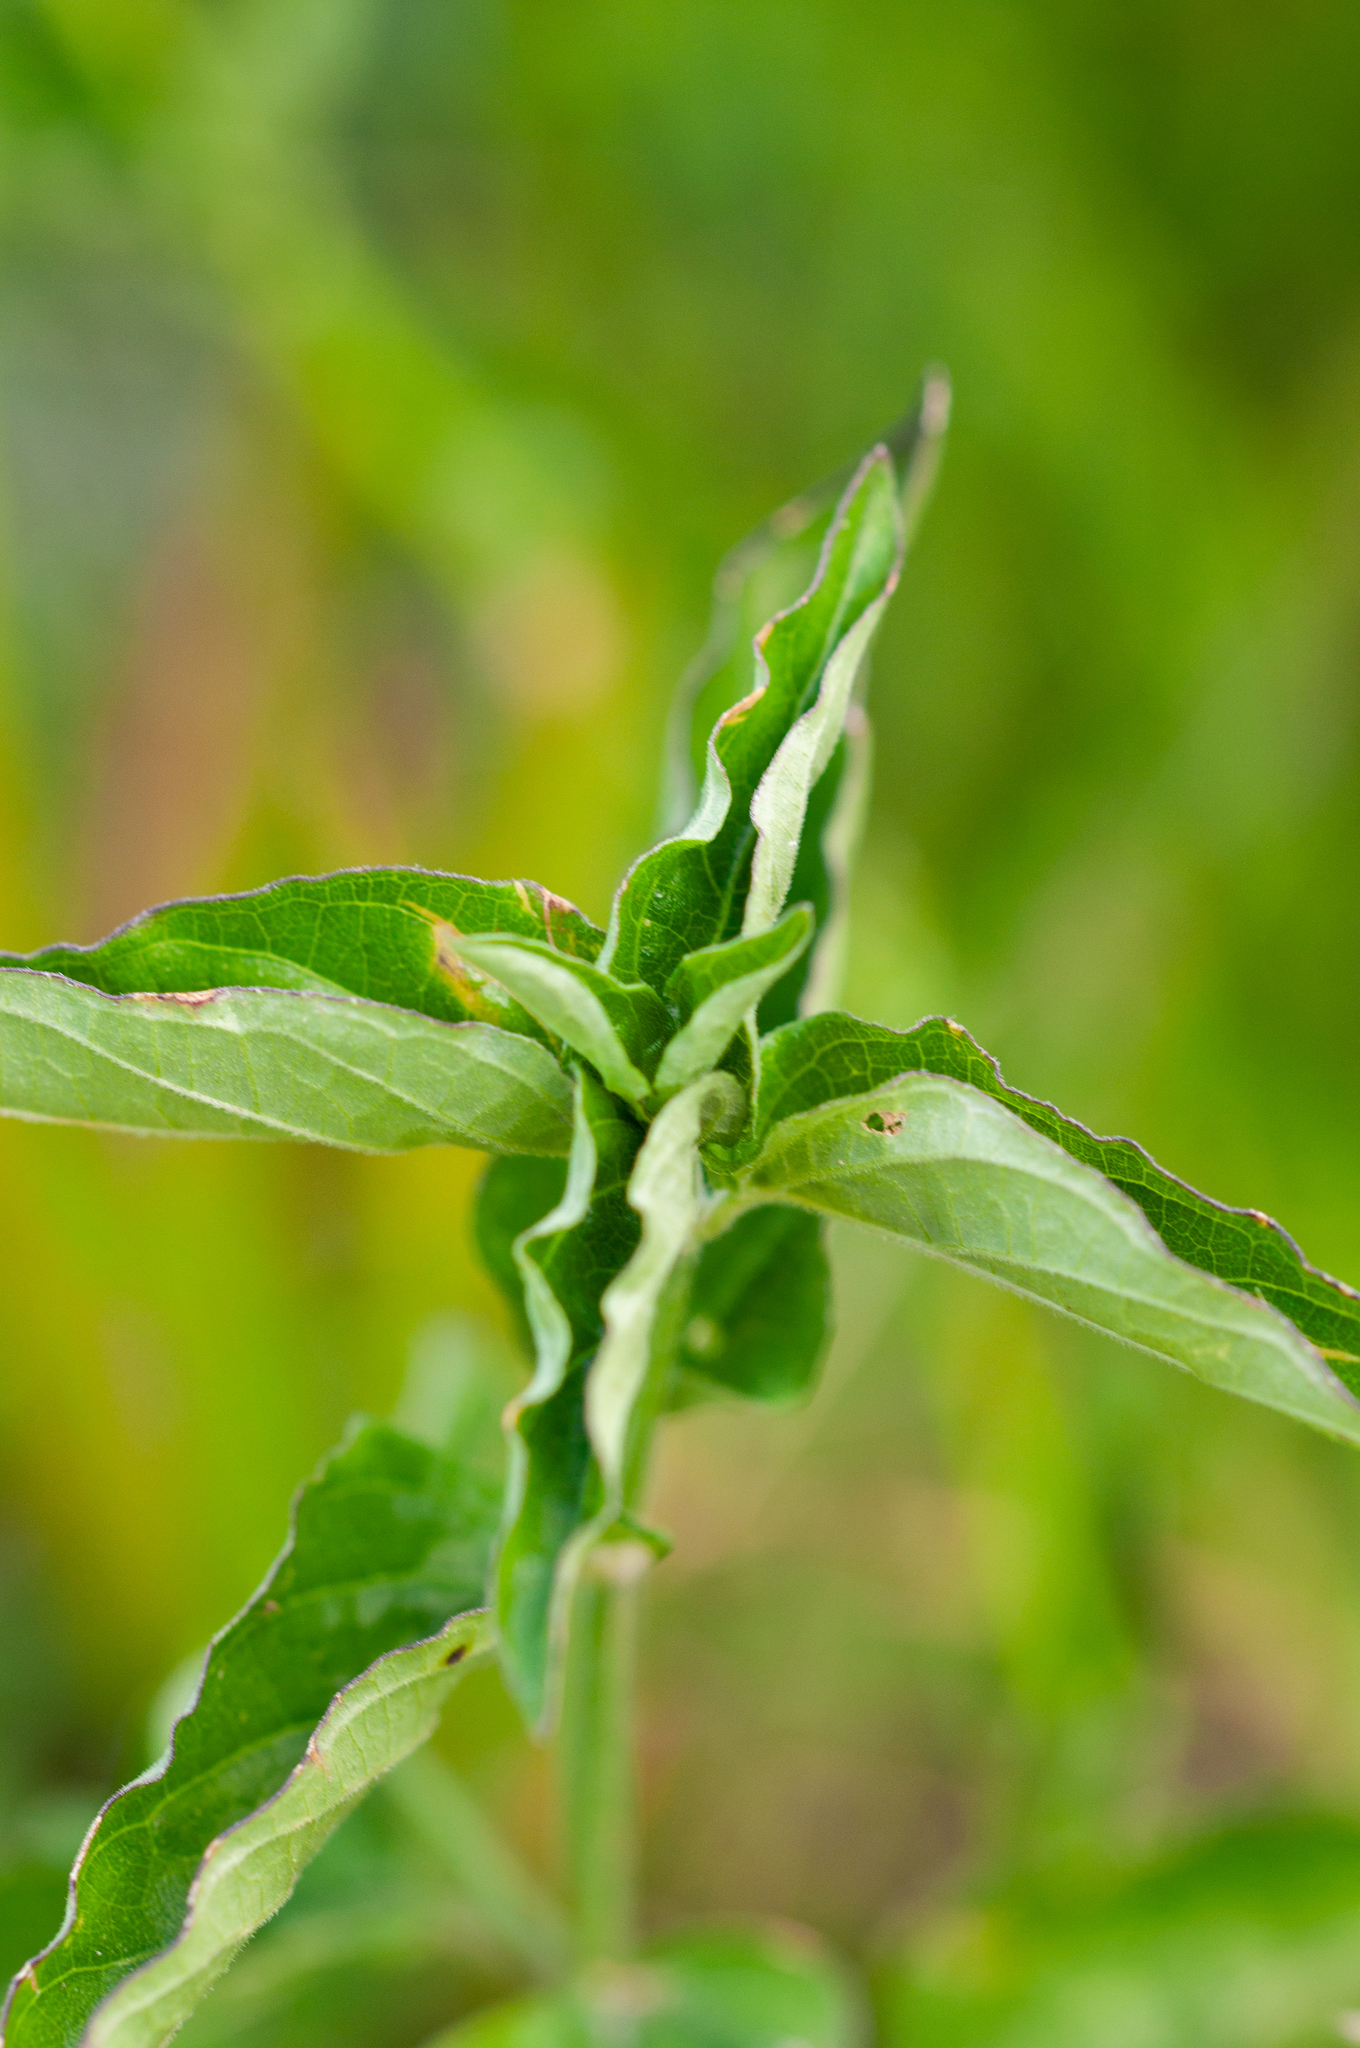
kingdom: Plantae
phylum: Tracheophyta
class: Magnoliopsida
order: Lamiales
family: Acanthaceae
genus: Asystasia
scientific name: Asystasia intrusa
